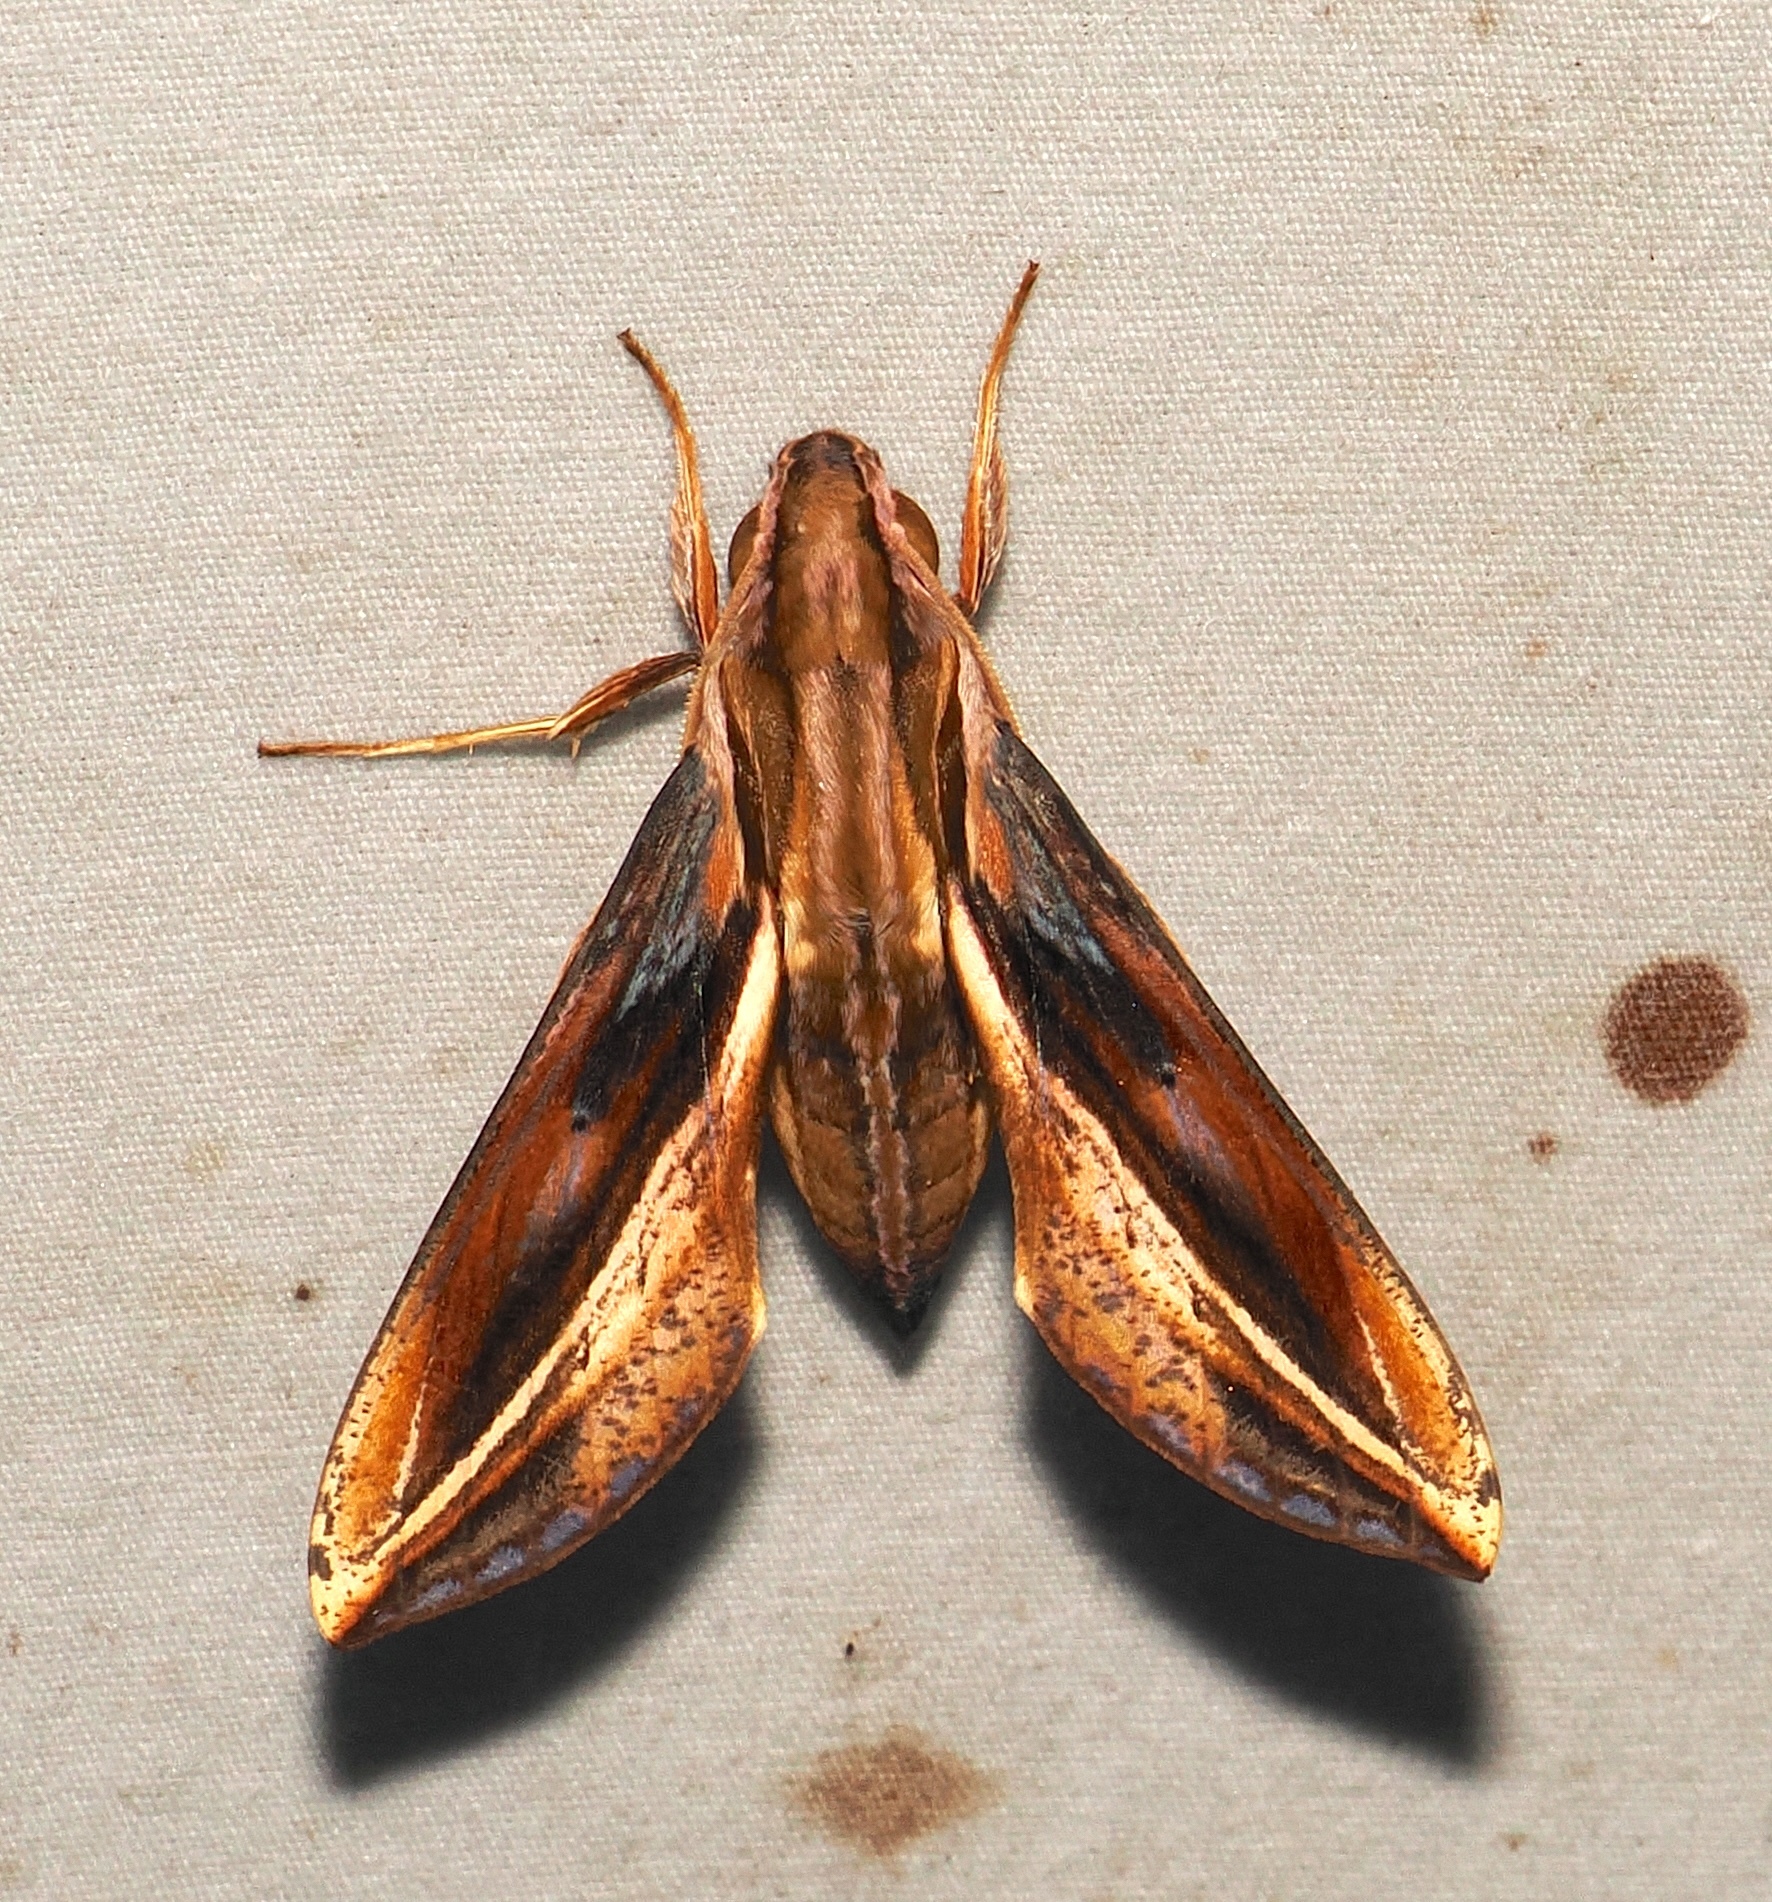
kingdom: Animalia
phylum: Arthropoda
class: Insecta
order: Lepidoptera
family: Sphingidae
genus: Xylophanes
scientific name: Xylophanes thyelia
